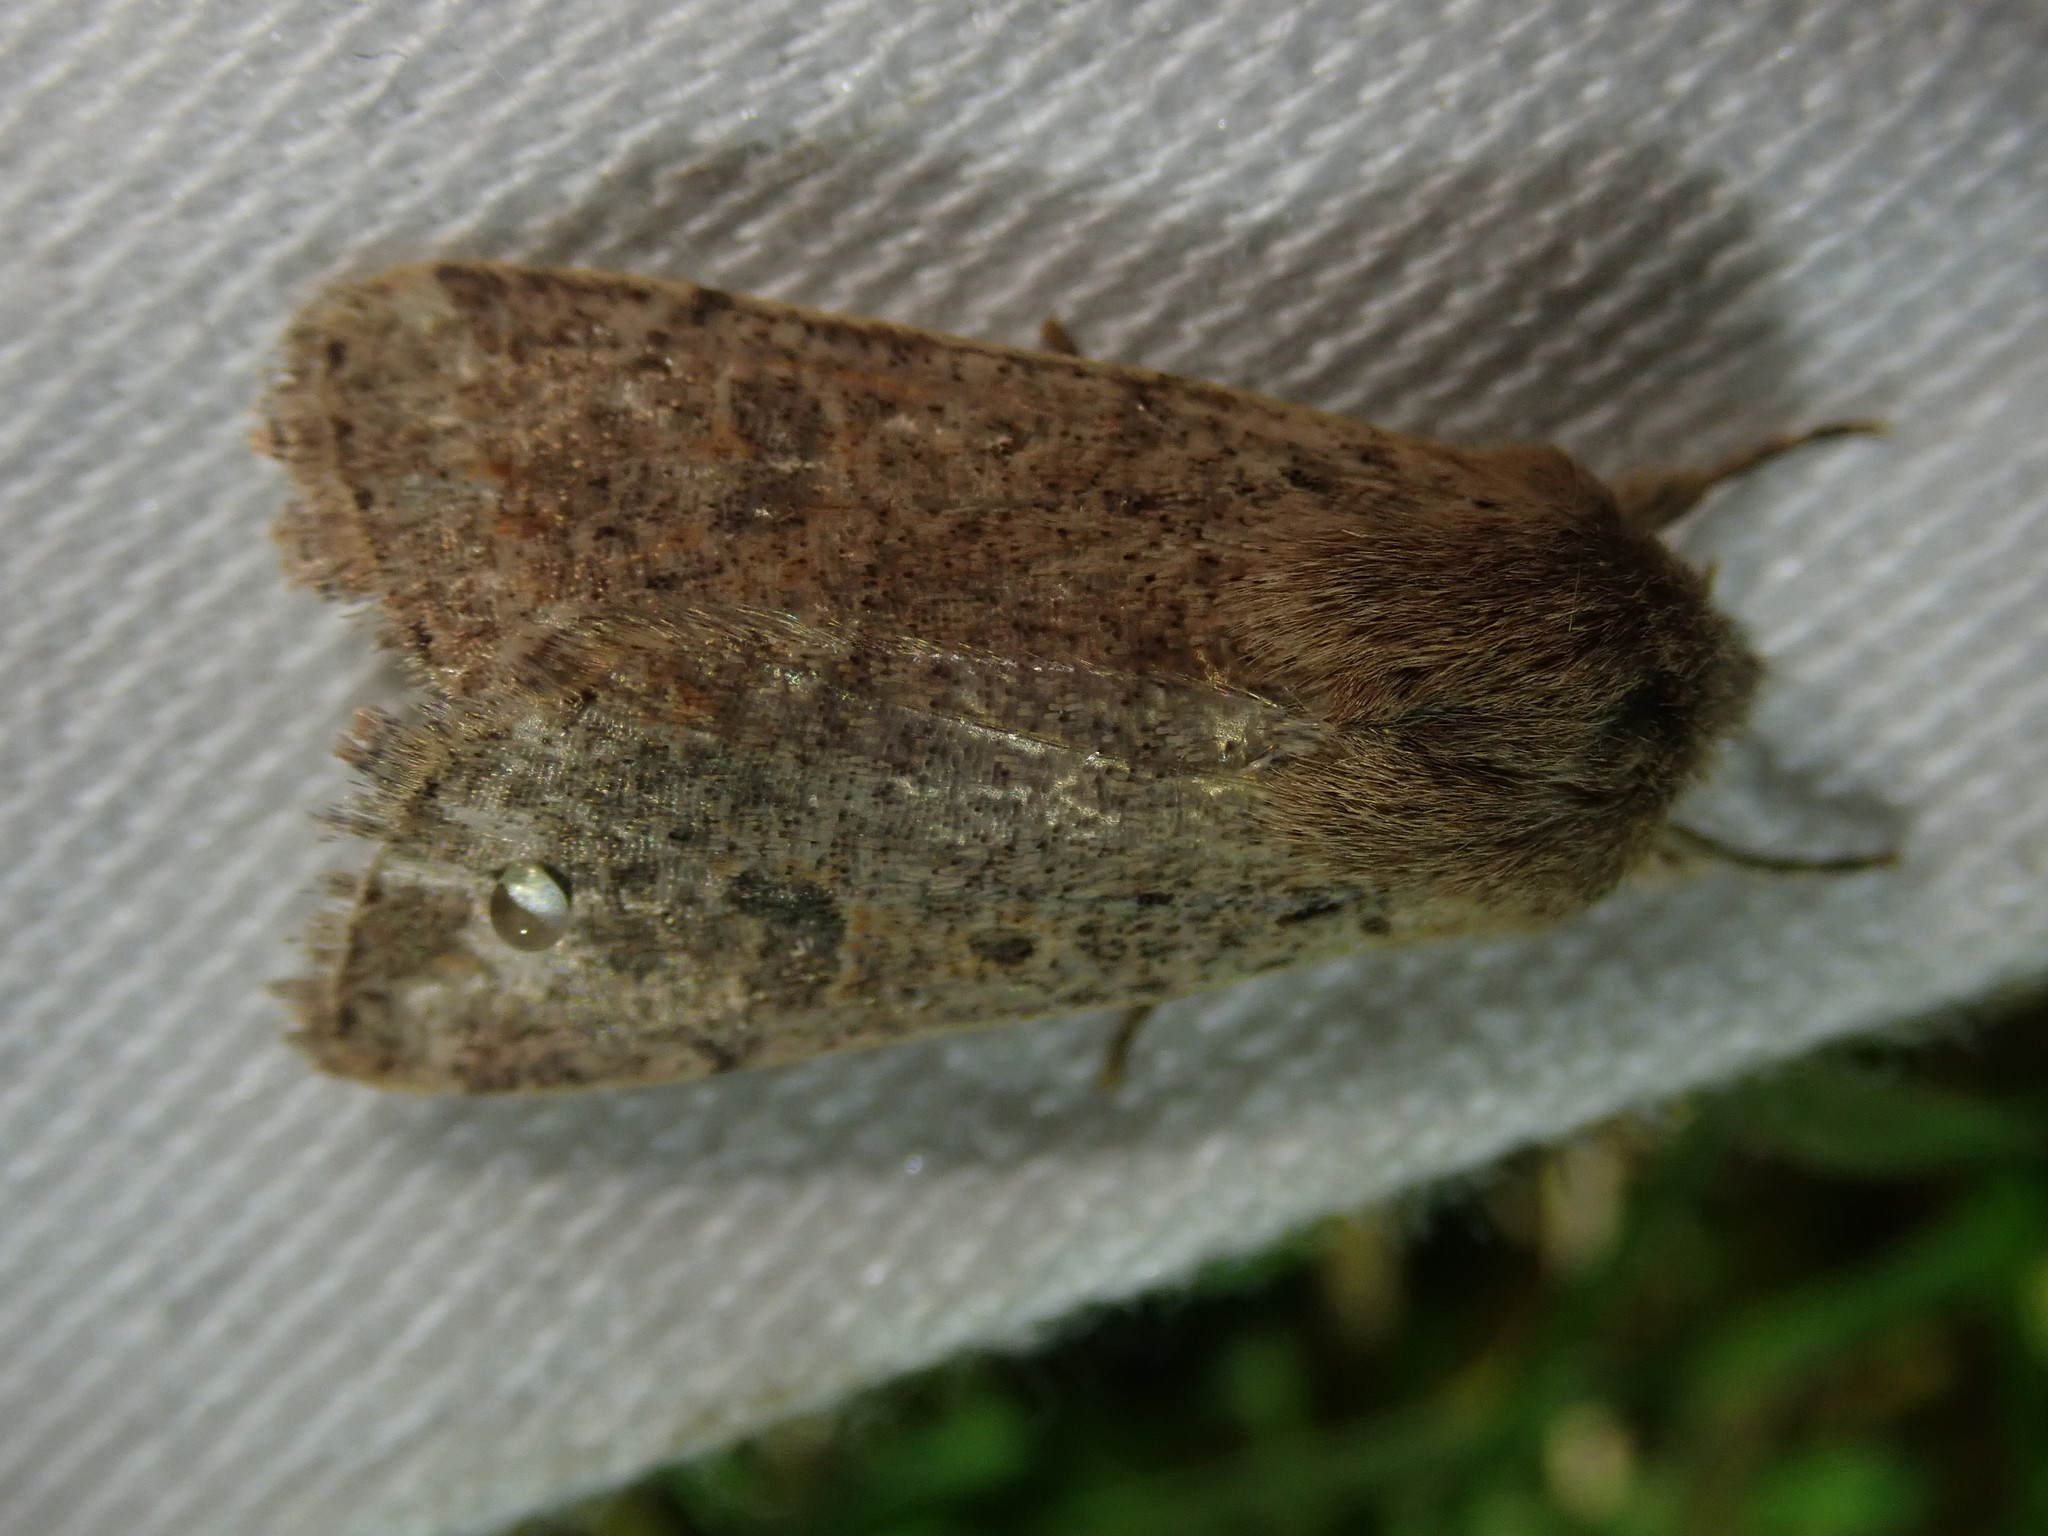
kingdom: Animalia
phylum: Arthropoda
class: Insecta
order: Lepidoptera
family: Noctuidae
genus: Orthosia
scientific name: Orthosia cruda
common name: Small quaker
